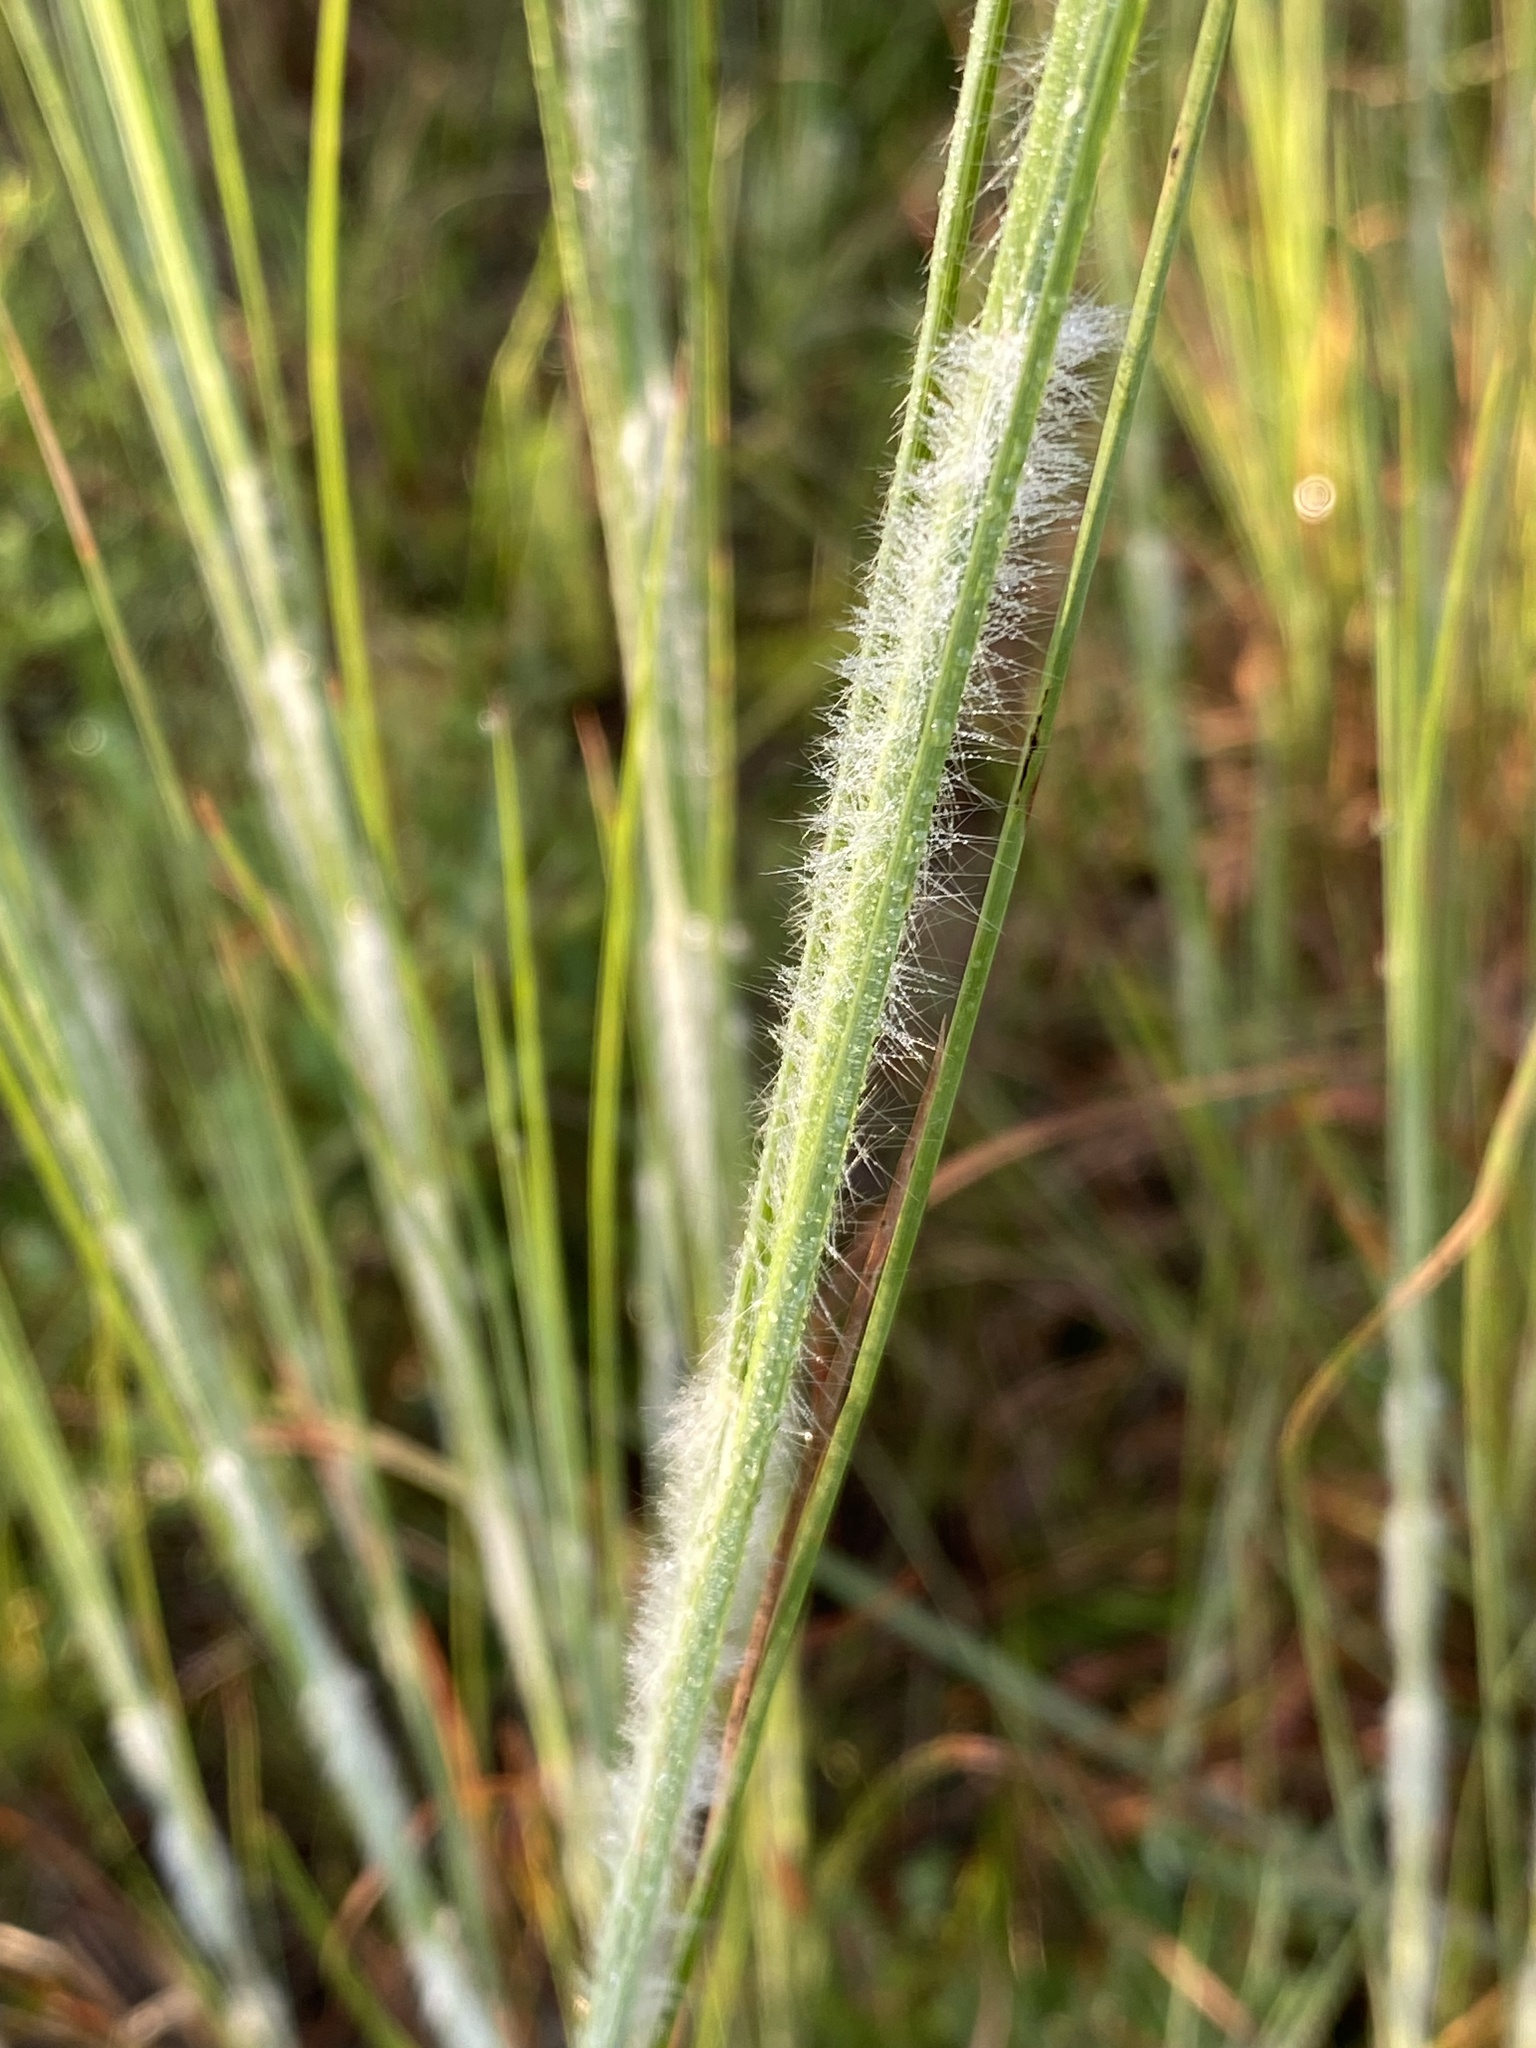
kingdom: Plantae
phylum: Tracheophyta
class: Liliopsida
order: Poales
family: Poaceae
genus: Andropogon
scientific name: Andropogon hirsutior
